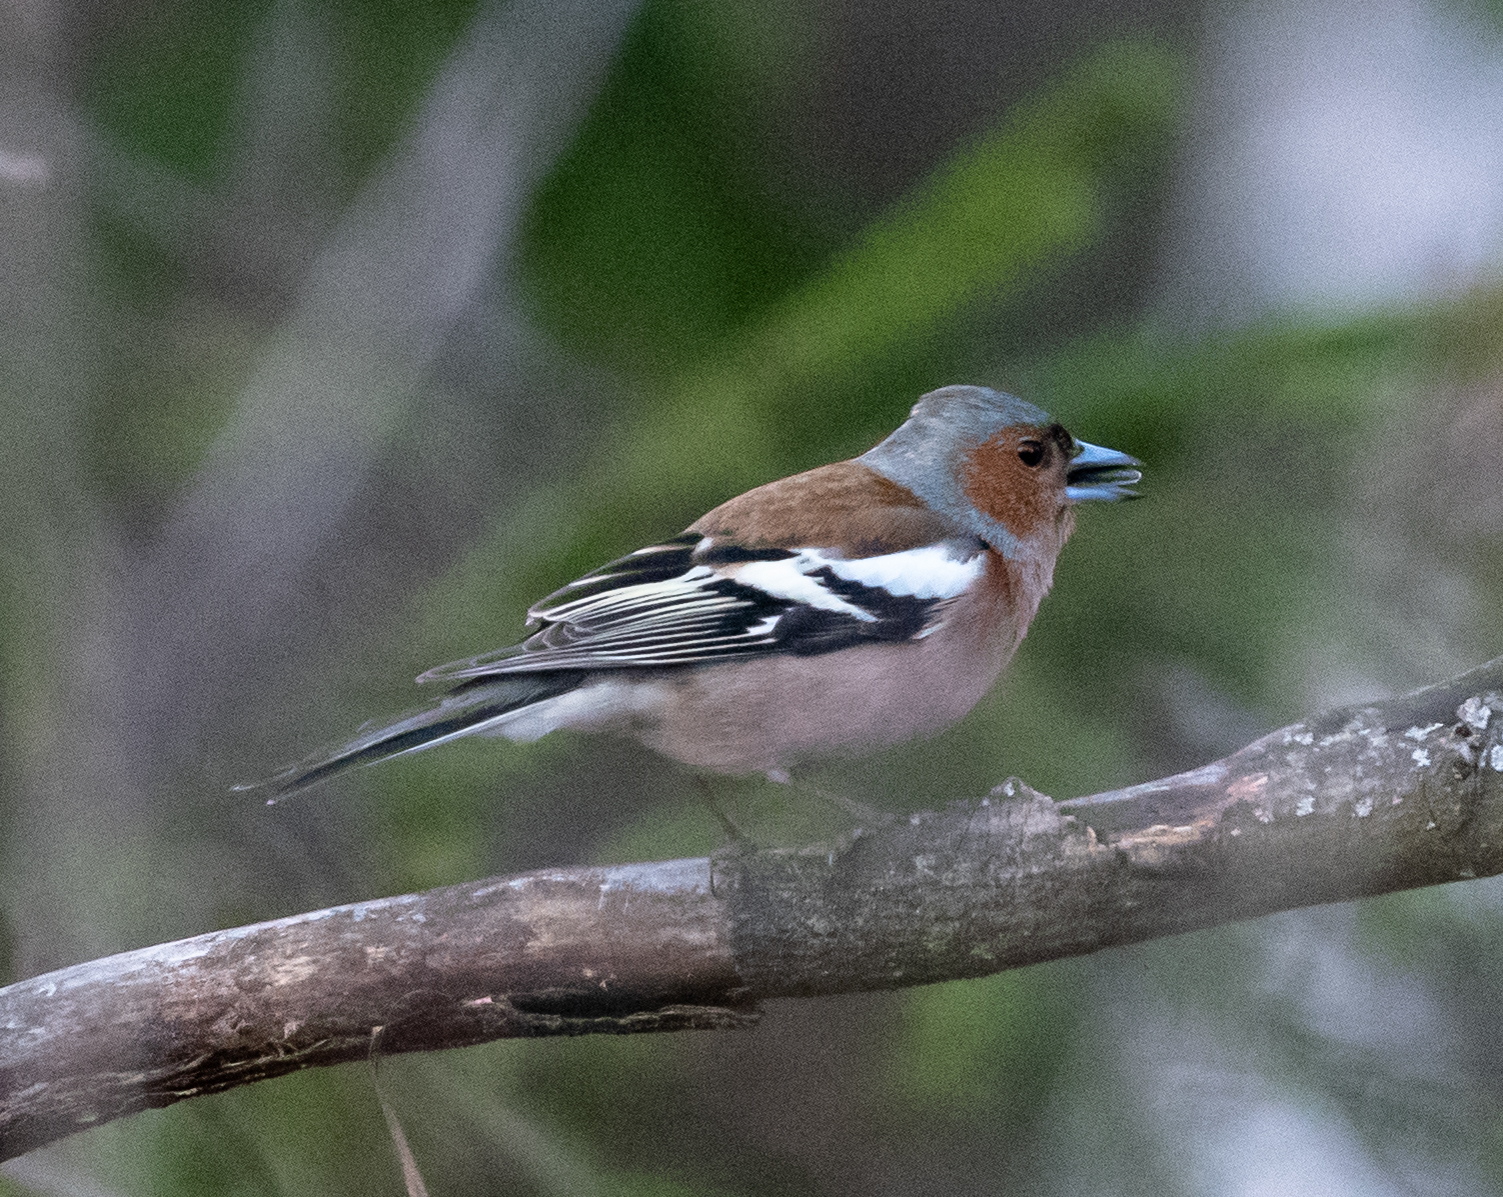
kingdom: Animalia
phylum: Chordata
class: Aves
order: Passeriformes
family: Fringillidae
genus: Fringilla
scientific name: Fringilla coelebs
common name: Common chaffinch
